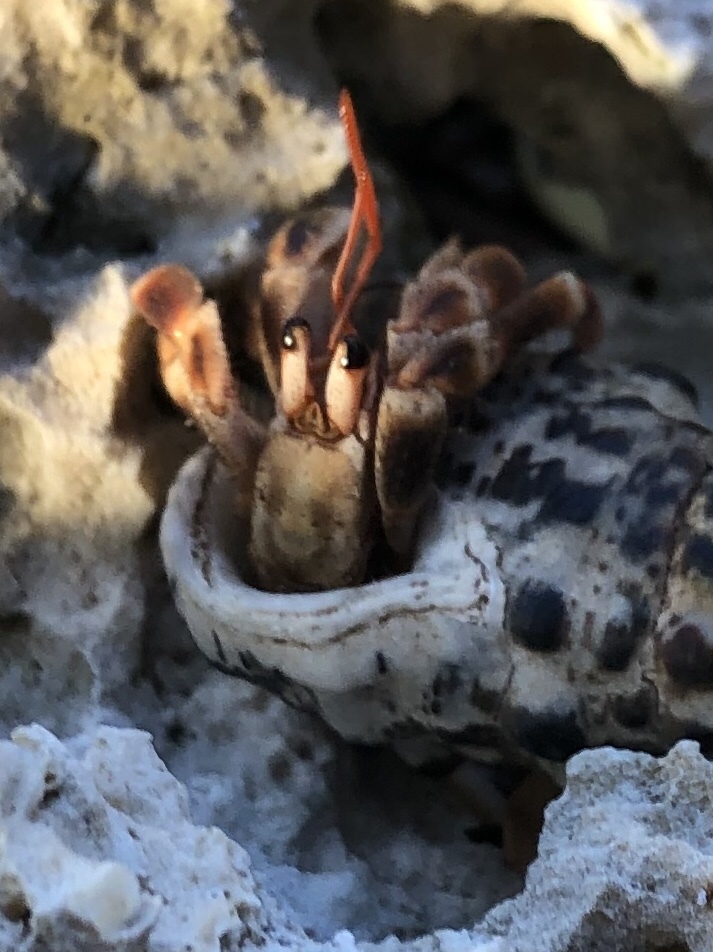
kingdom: Animalia
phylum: Arthropoda
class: Malacostraca
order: Decapoda
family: Coenobitidae
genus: Coenobita
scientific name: Coenobita violascens
